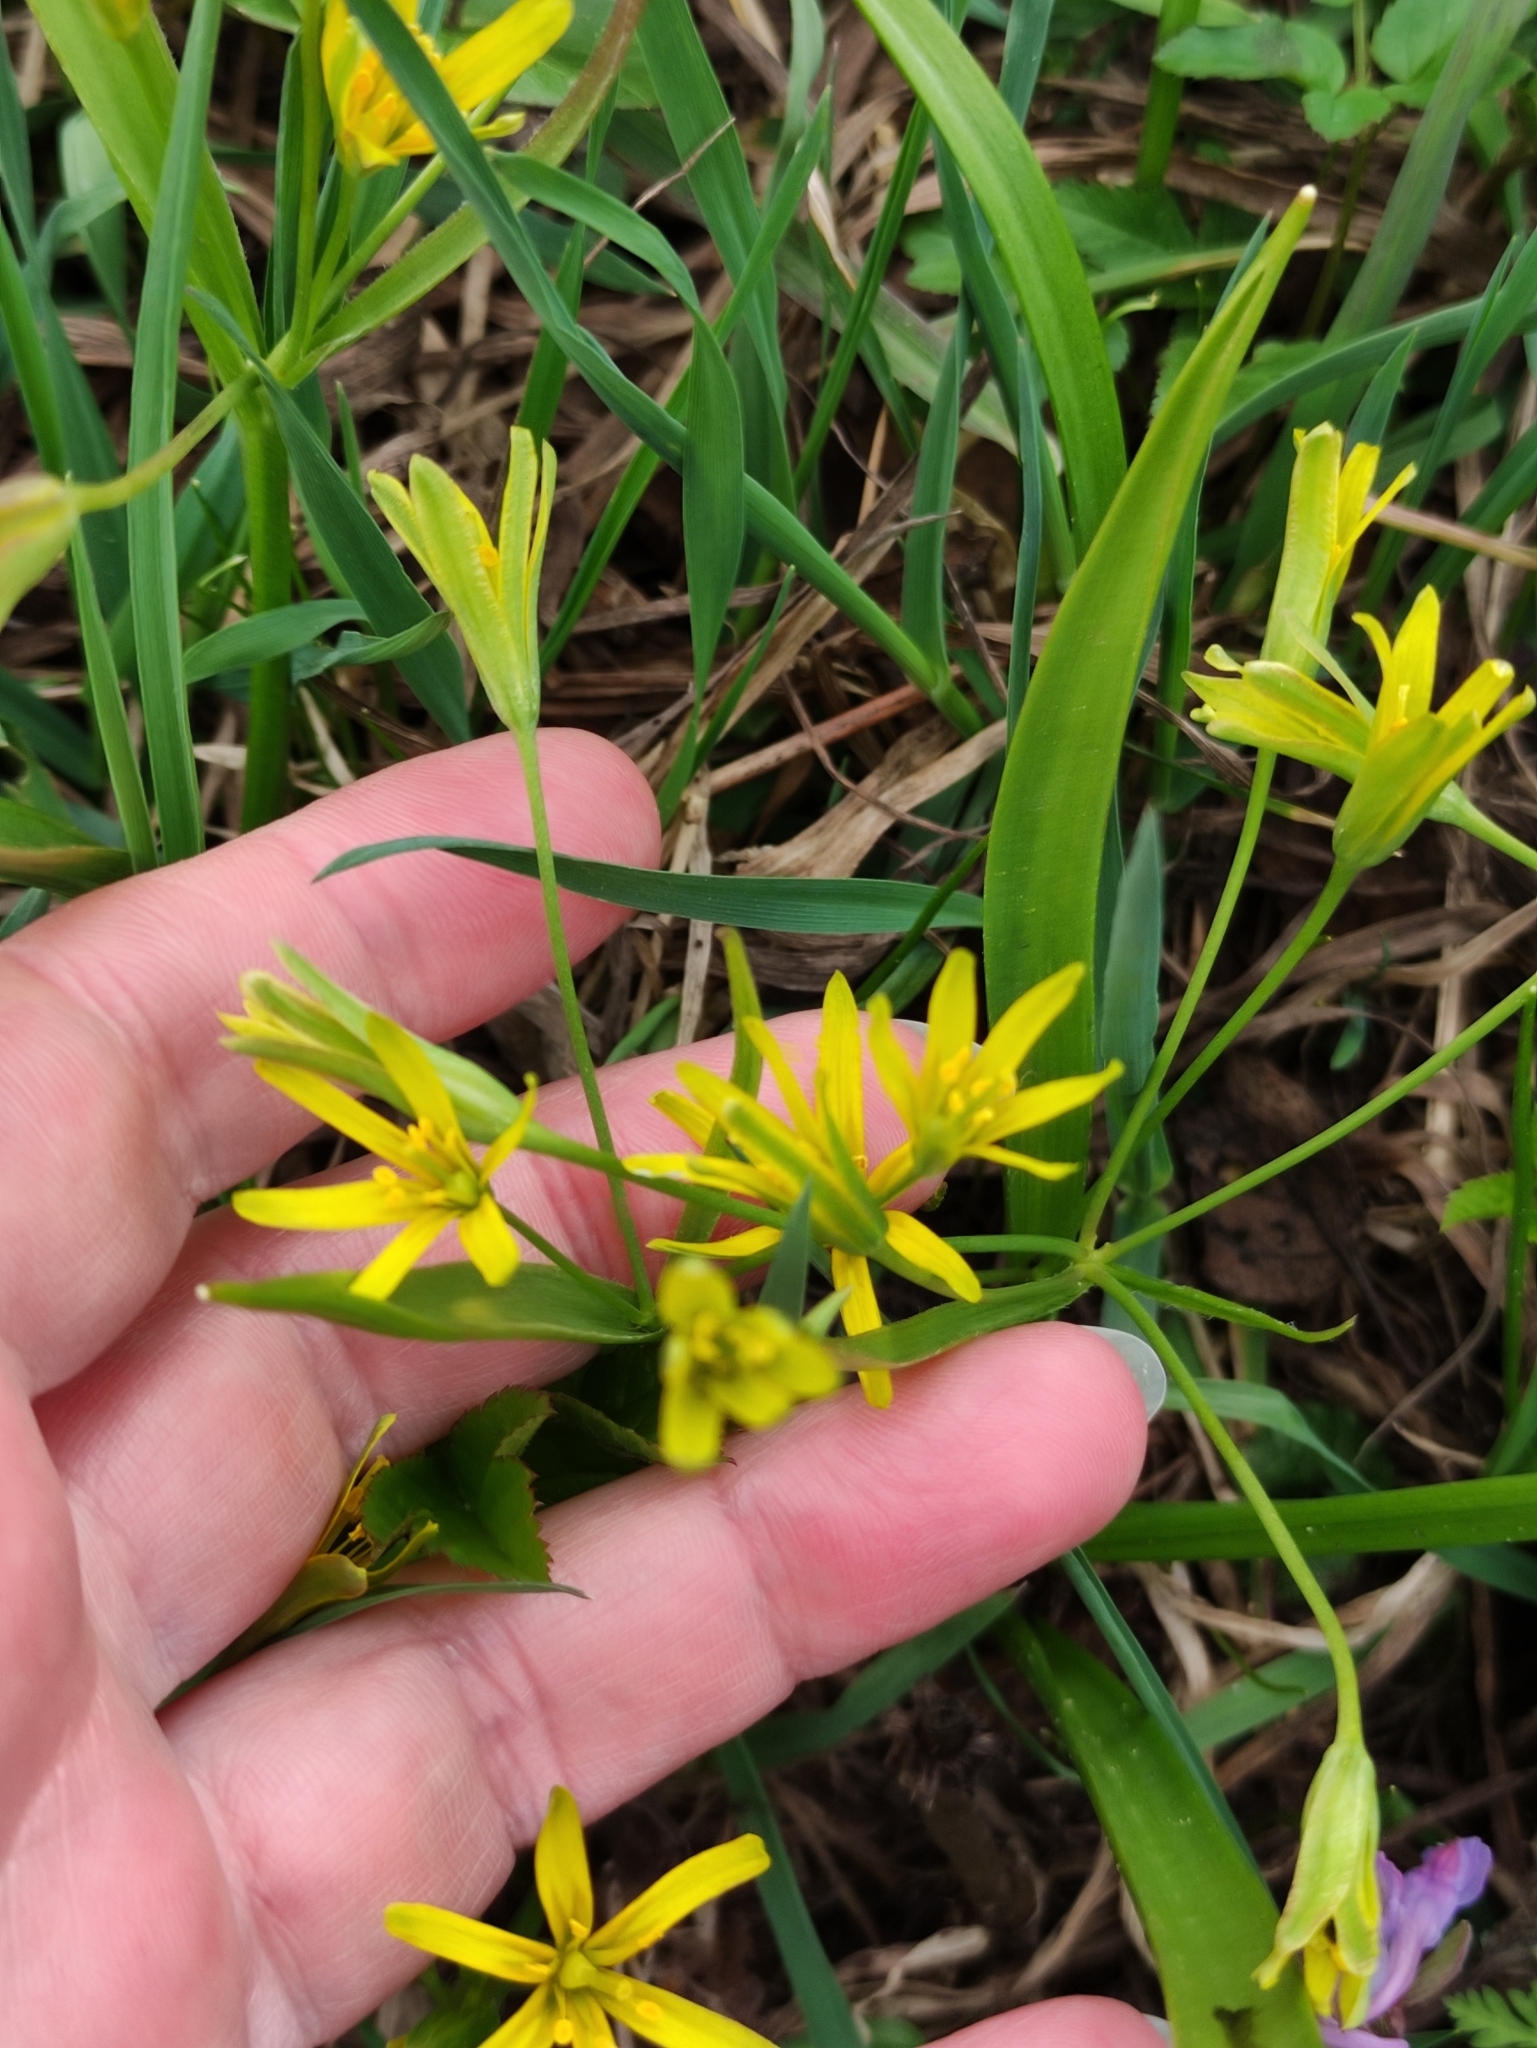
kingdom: Plantae
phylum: Tracheophyta
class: Liliopsida
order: Liliales
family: Liliaceae
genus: Gagea
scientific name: Gagea lutea
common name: Yellow star-of-bethlehem
